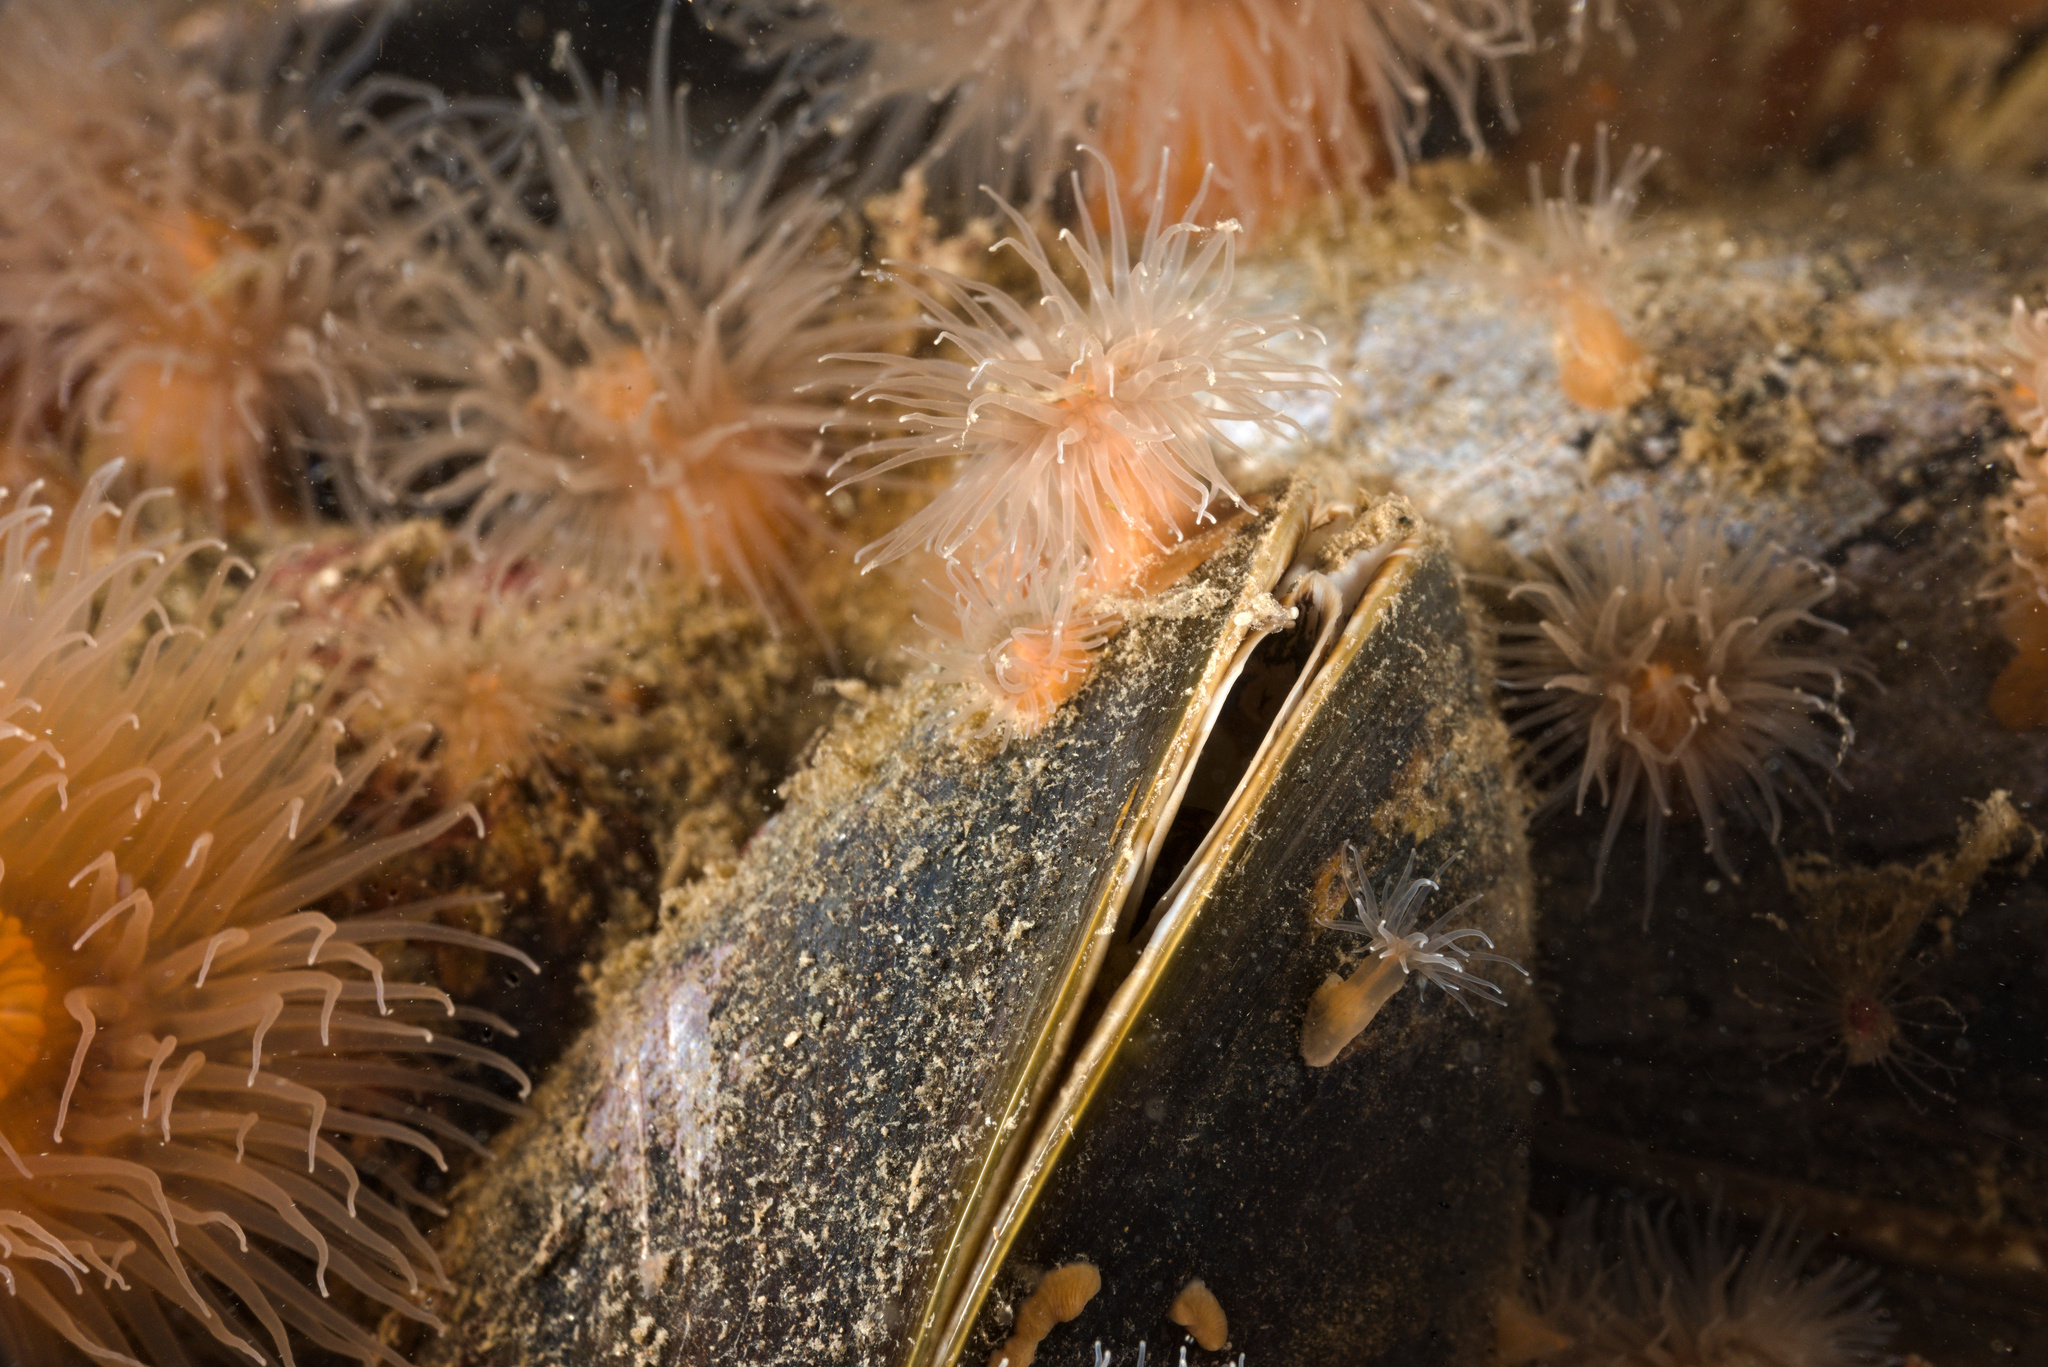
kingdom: Animalia
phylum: Mollusca
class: Bivalvia
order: Mytilida
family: Mytilidae
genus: Mytilus
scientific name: Mytilus edulis
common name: Blue mussel
